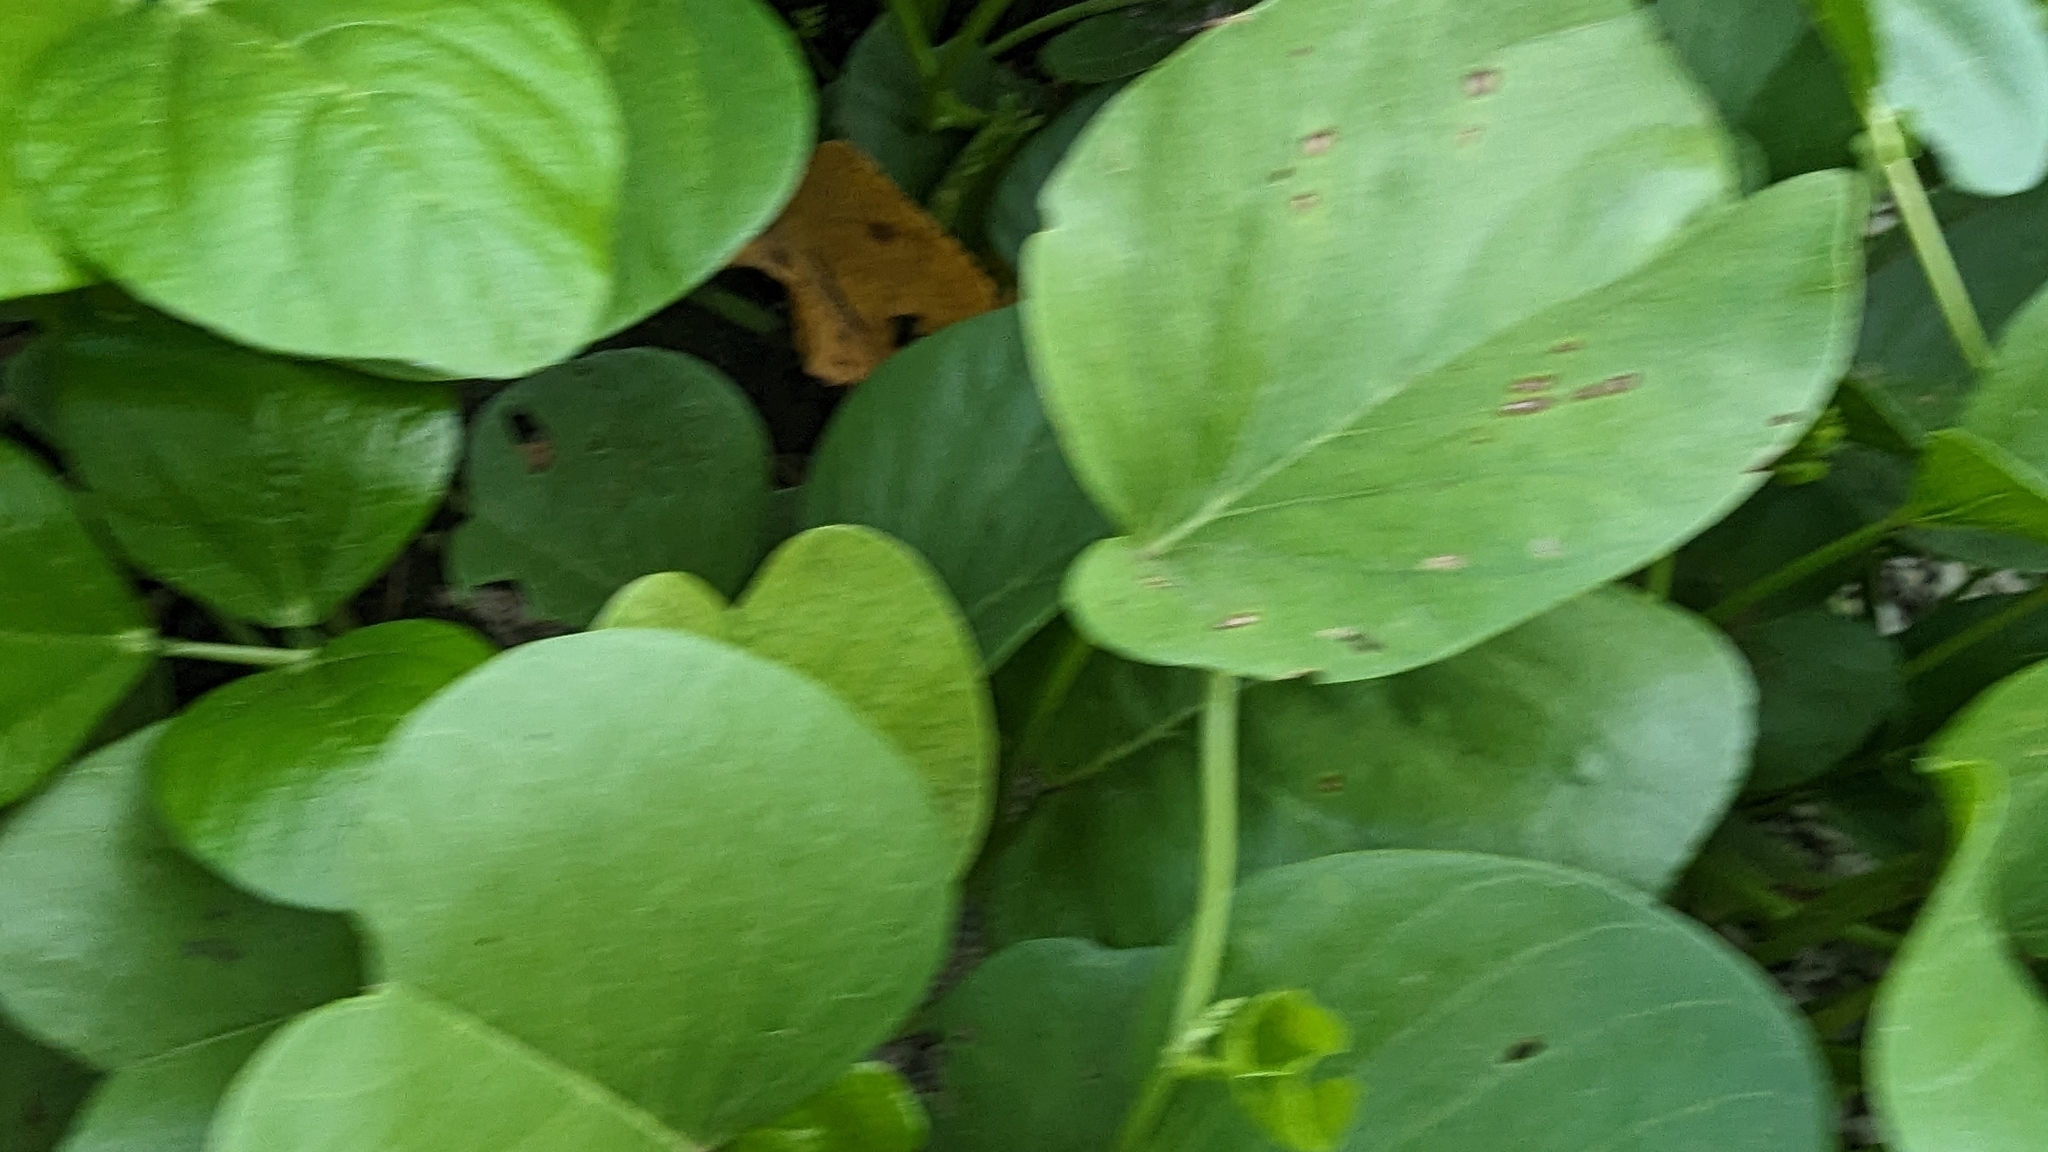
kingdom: Plantae
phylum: Tracheophyta
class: Magnoliopsida
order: Solanales
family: Convolvulaceae
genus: Ipomoea
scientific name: Ipomoea pes-caprae
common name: Beach morning glory
